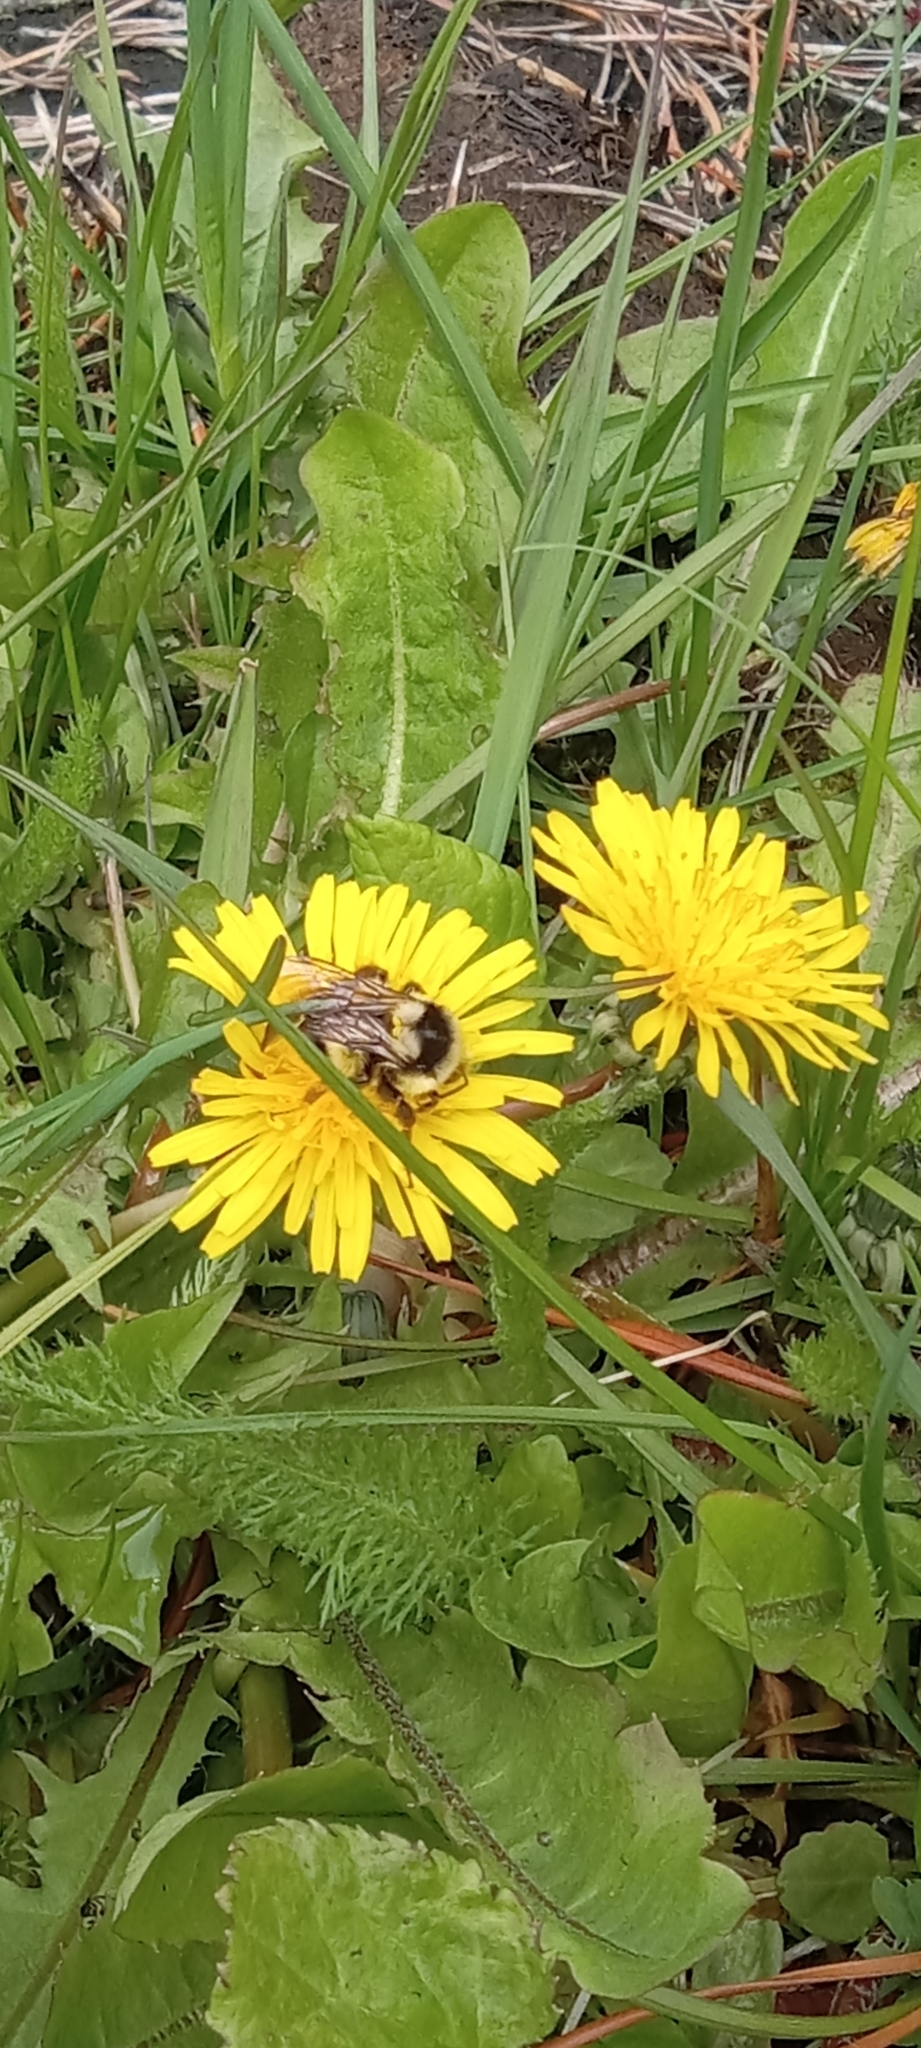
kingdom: Animalia
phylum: Arthropoda
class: Insecta
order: Hymenoptera
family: Apidae
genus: Bombus
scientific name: Bombus vancouverensis
